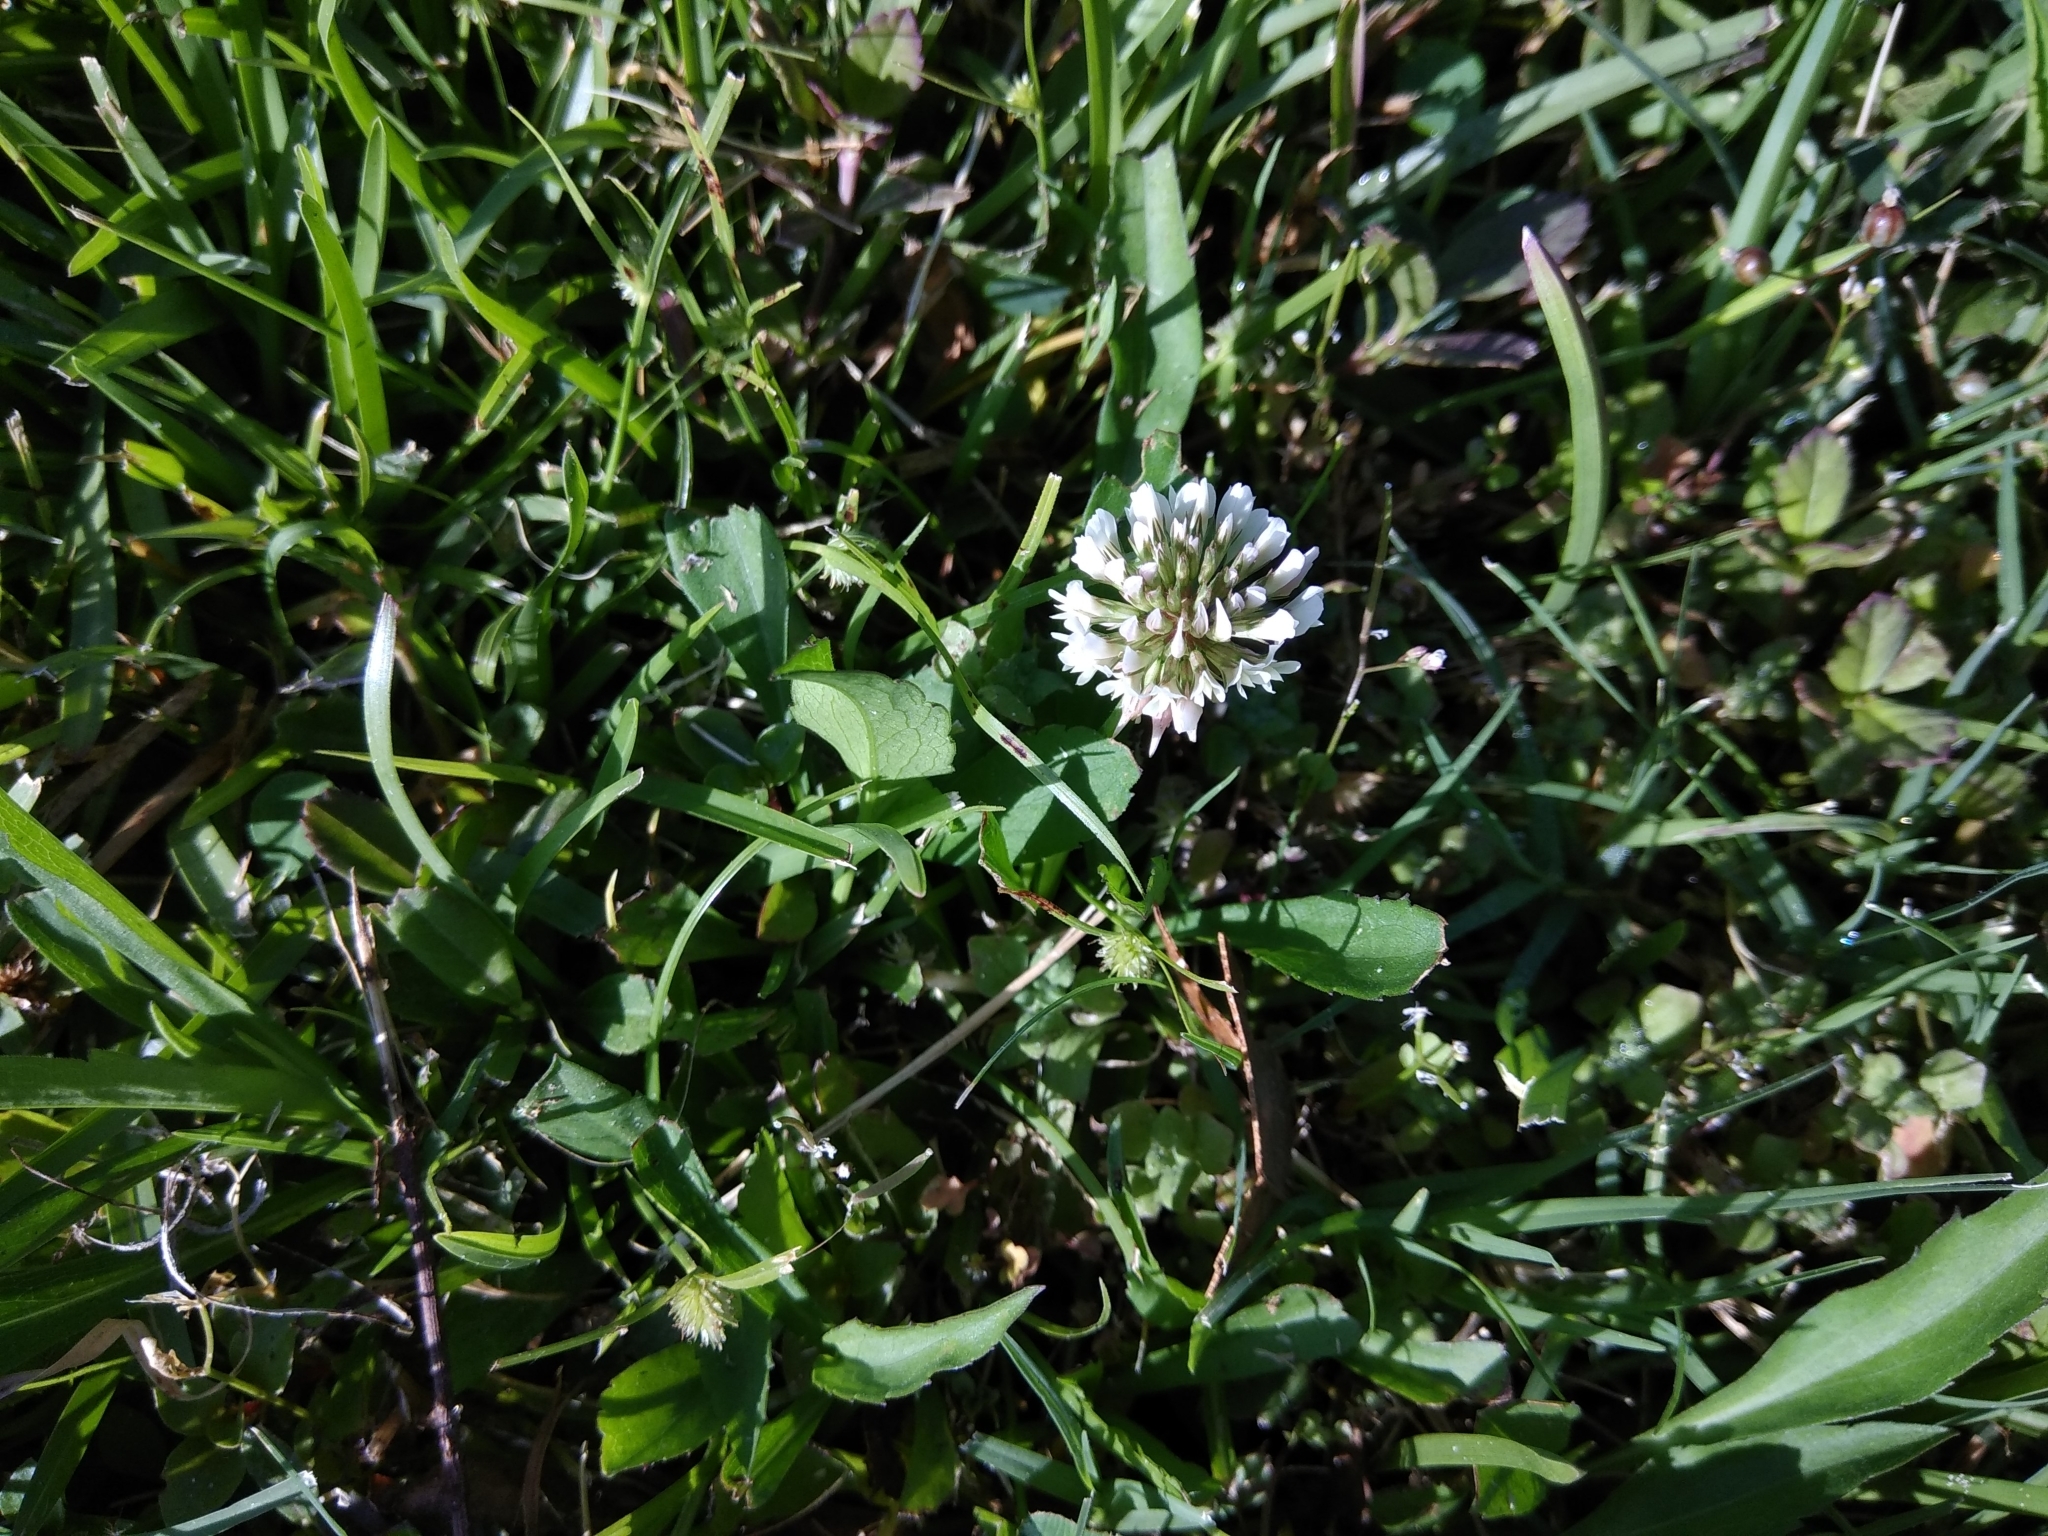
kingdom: Plantae
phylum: Tracheophyta
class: Magnoliopsida
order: Fabales
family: Fabaceae
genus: Trifolium
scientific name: Trifolium repens
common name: White clover
